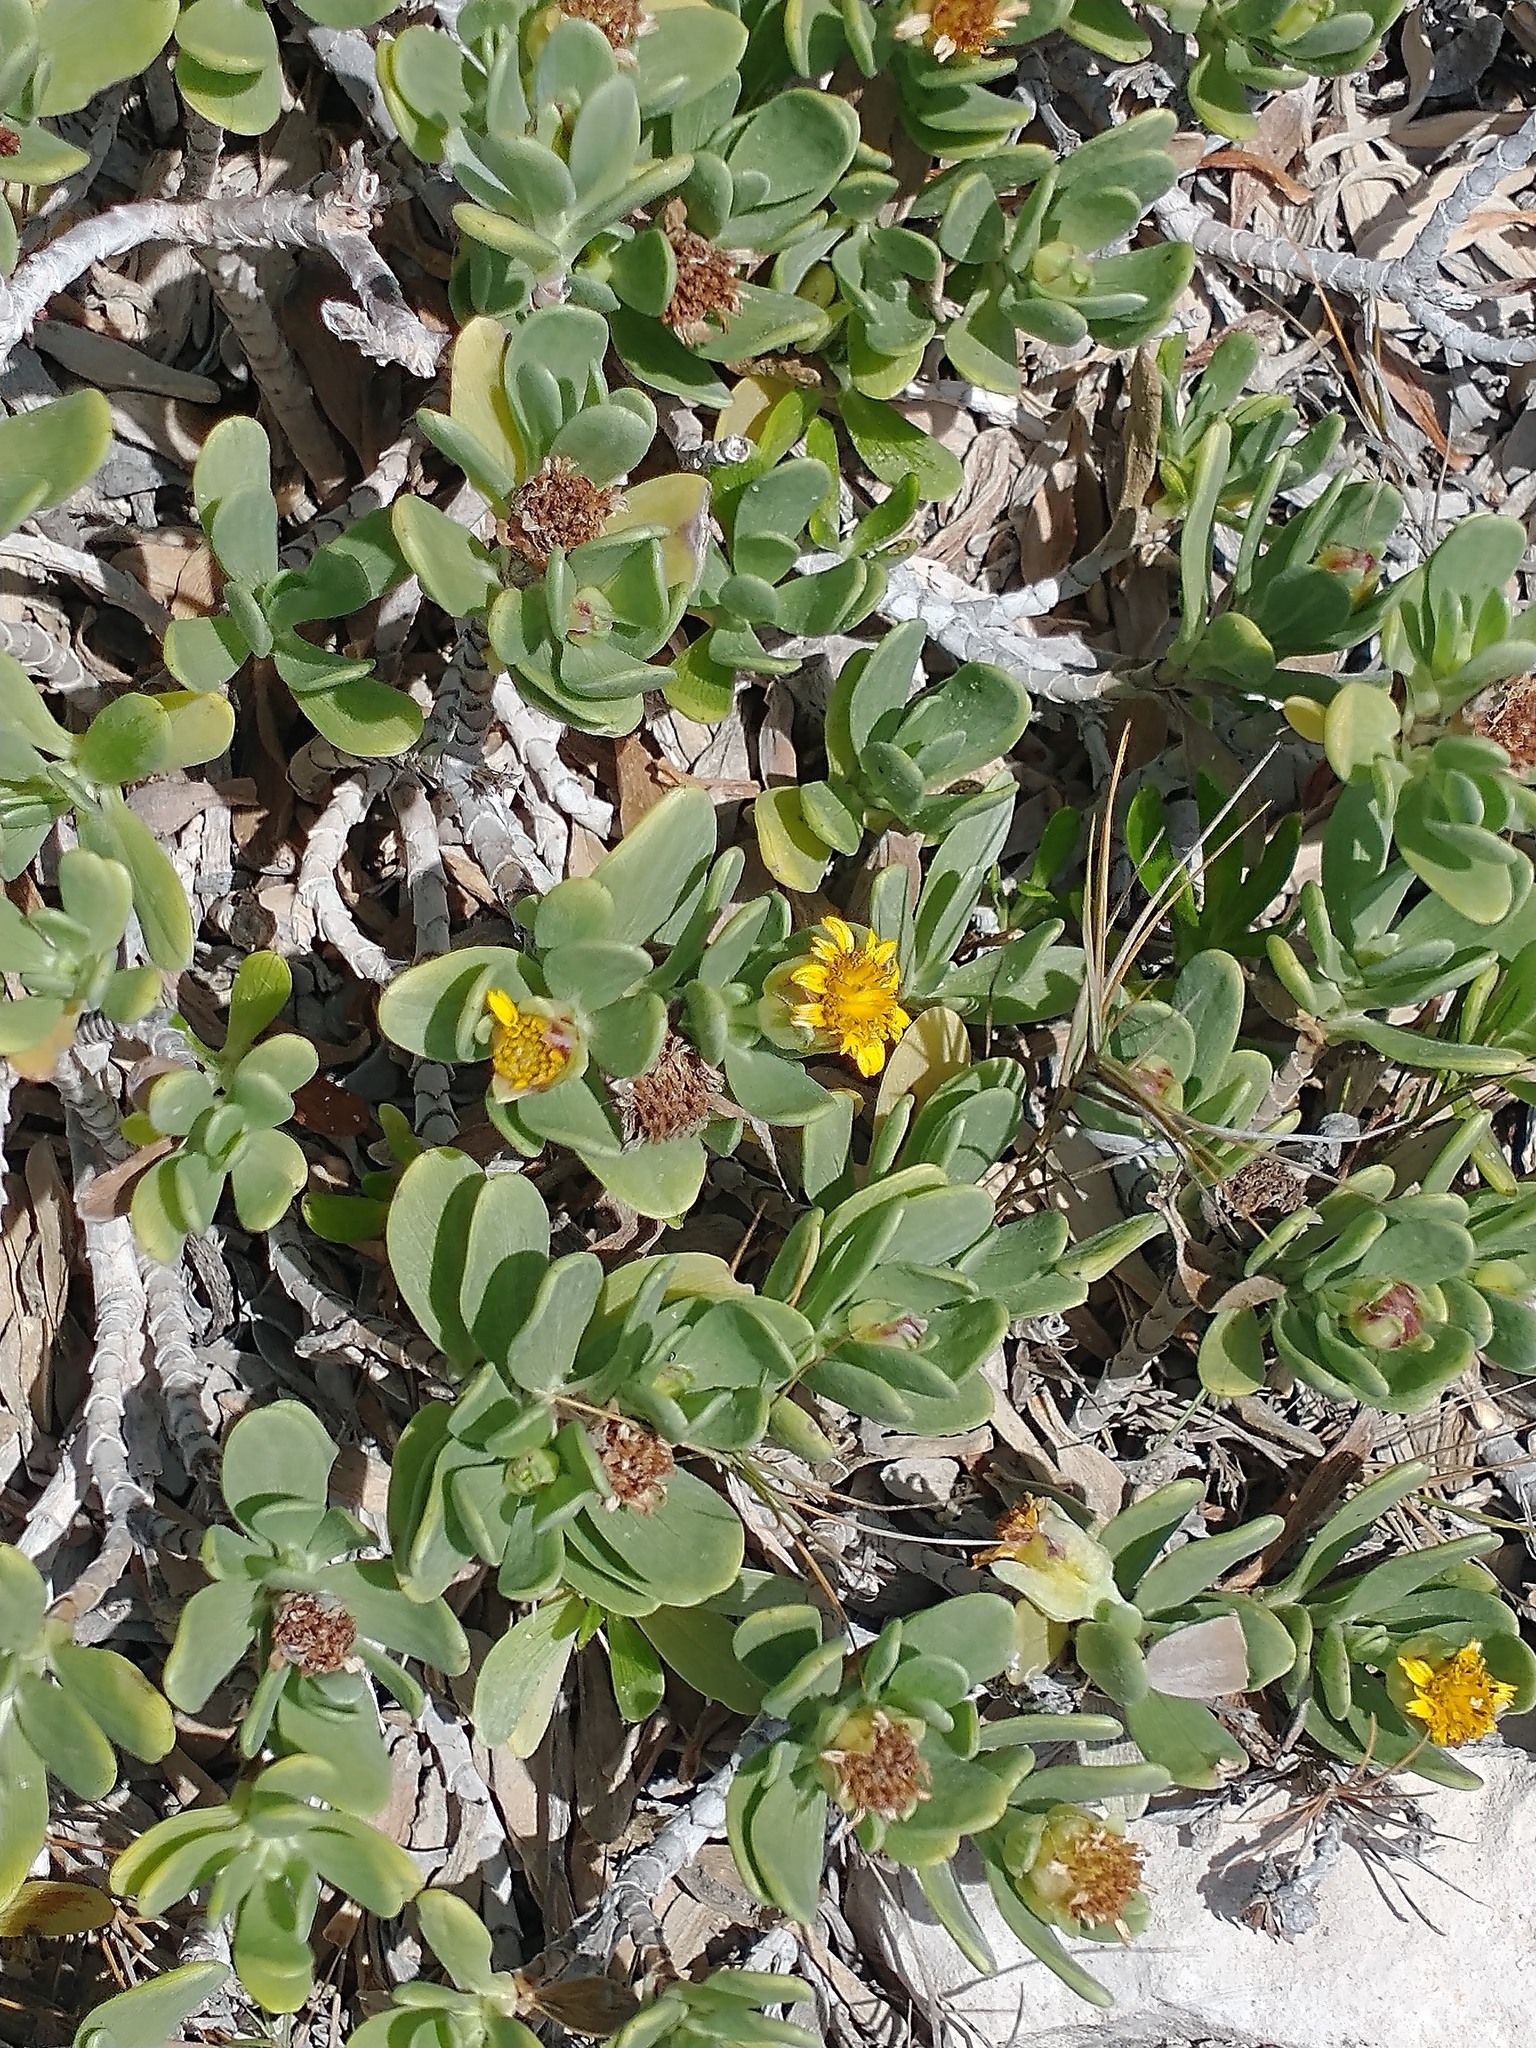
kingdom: Plantae
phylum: Tracheophyta
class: Magnoliopsida
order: Asterales
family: Asteraceae
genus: Borrichia
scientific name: Borrichia arborescens
